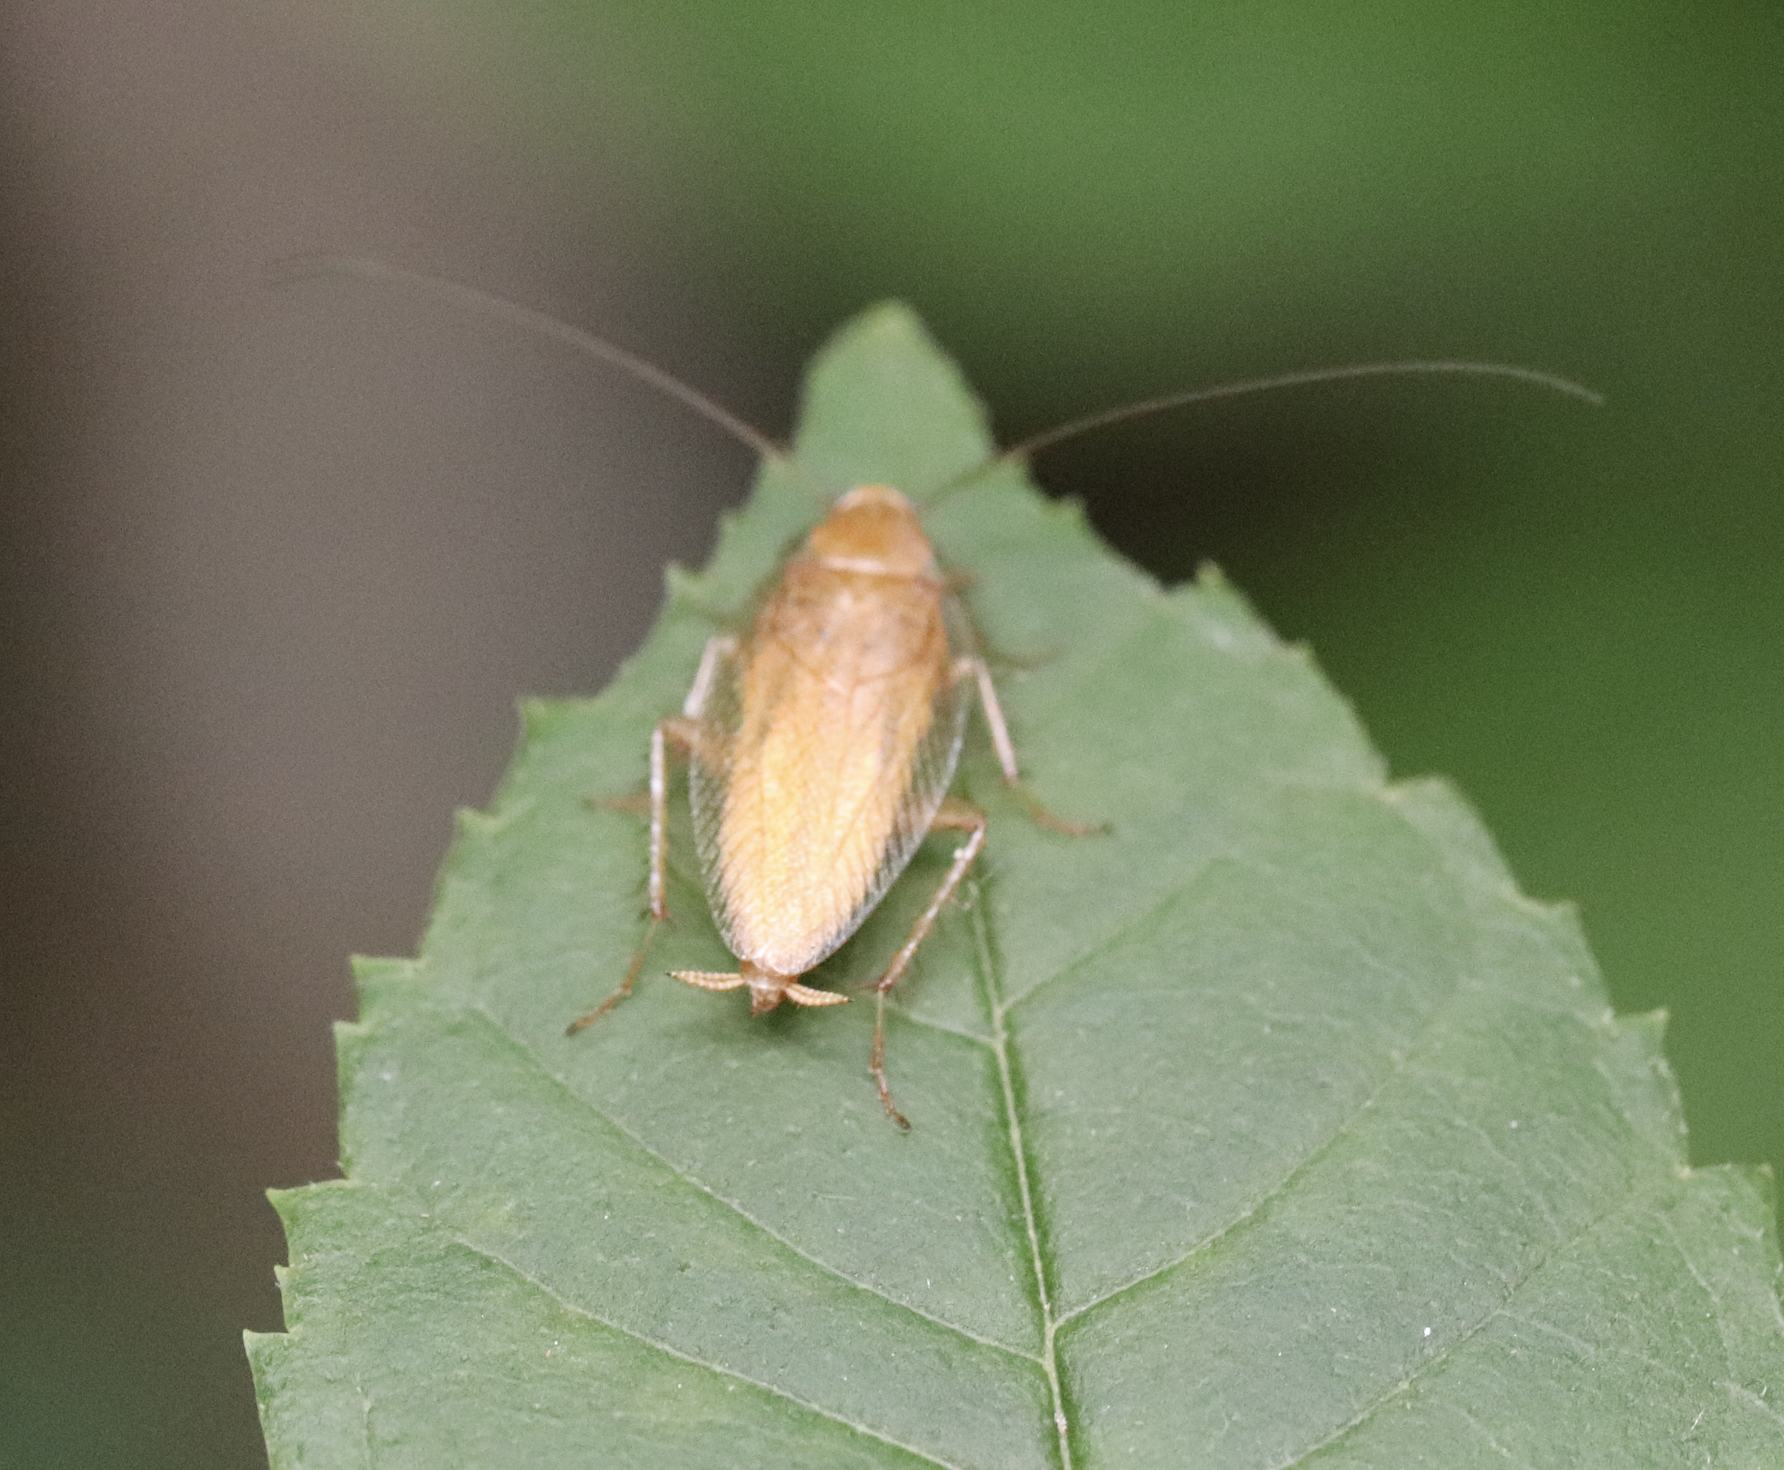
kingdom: Animalia
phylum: Arthropoda
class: Insecta
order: Blattodea
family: Ectobiidae
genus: Ectobius
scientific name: Ectobius pallidus
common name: Tawny cockroach
